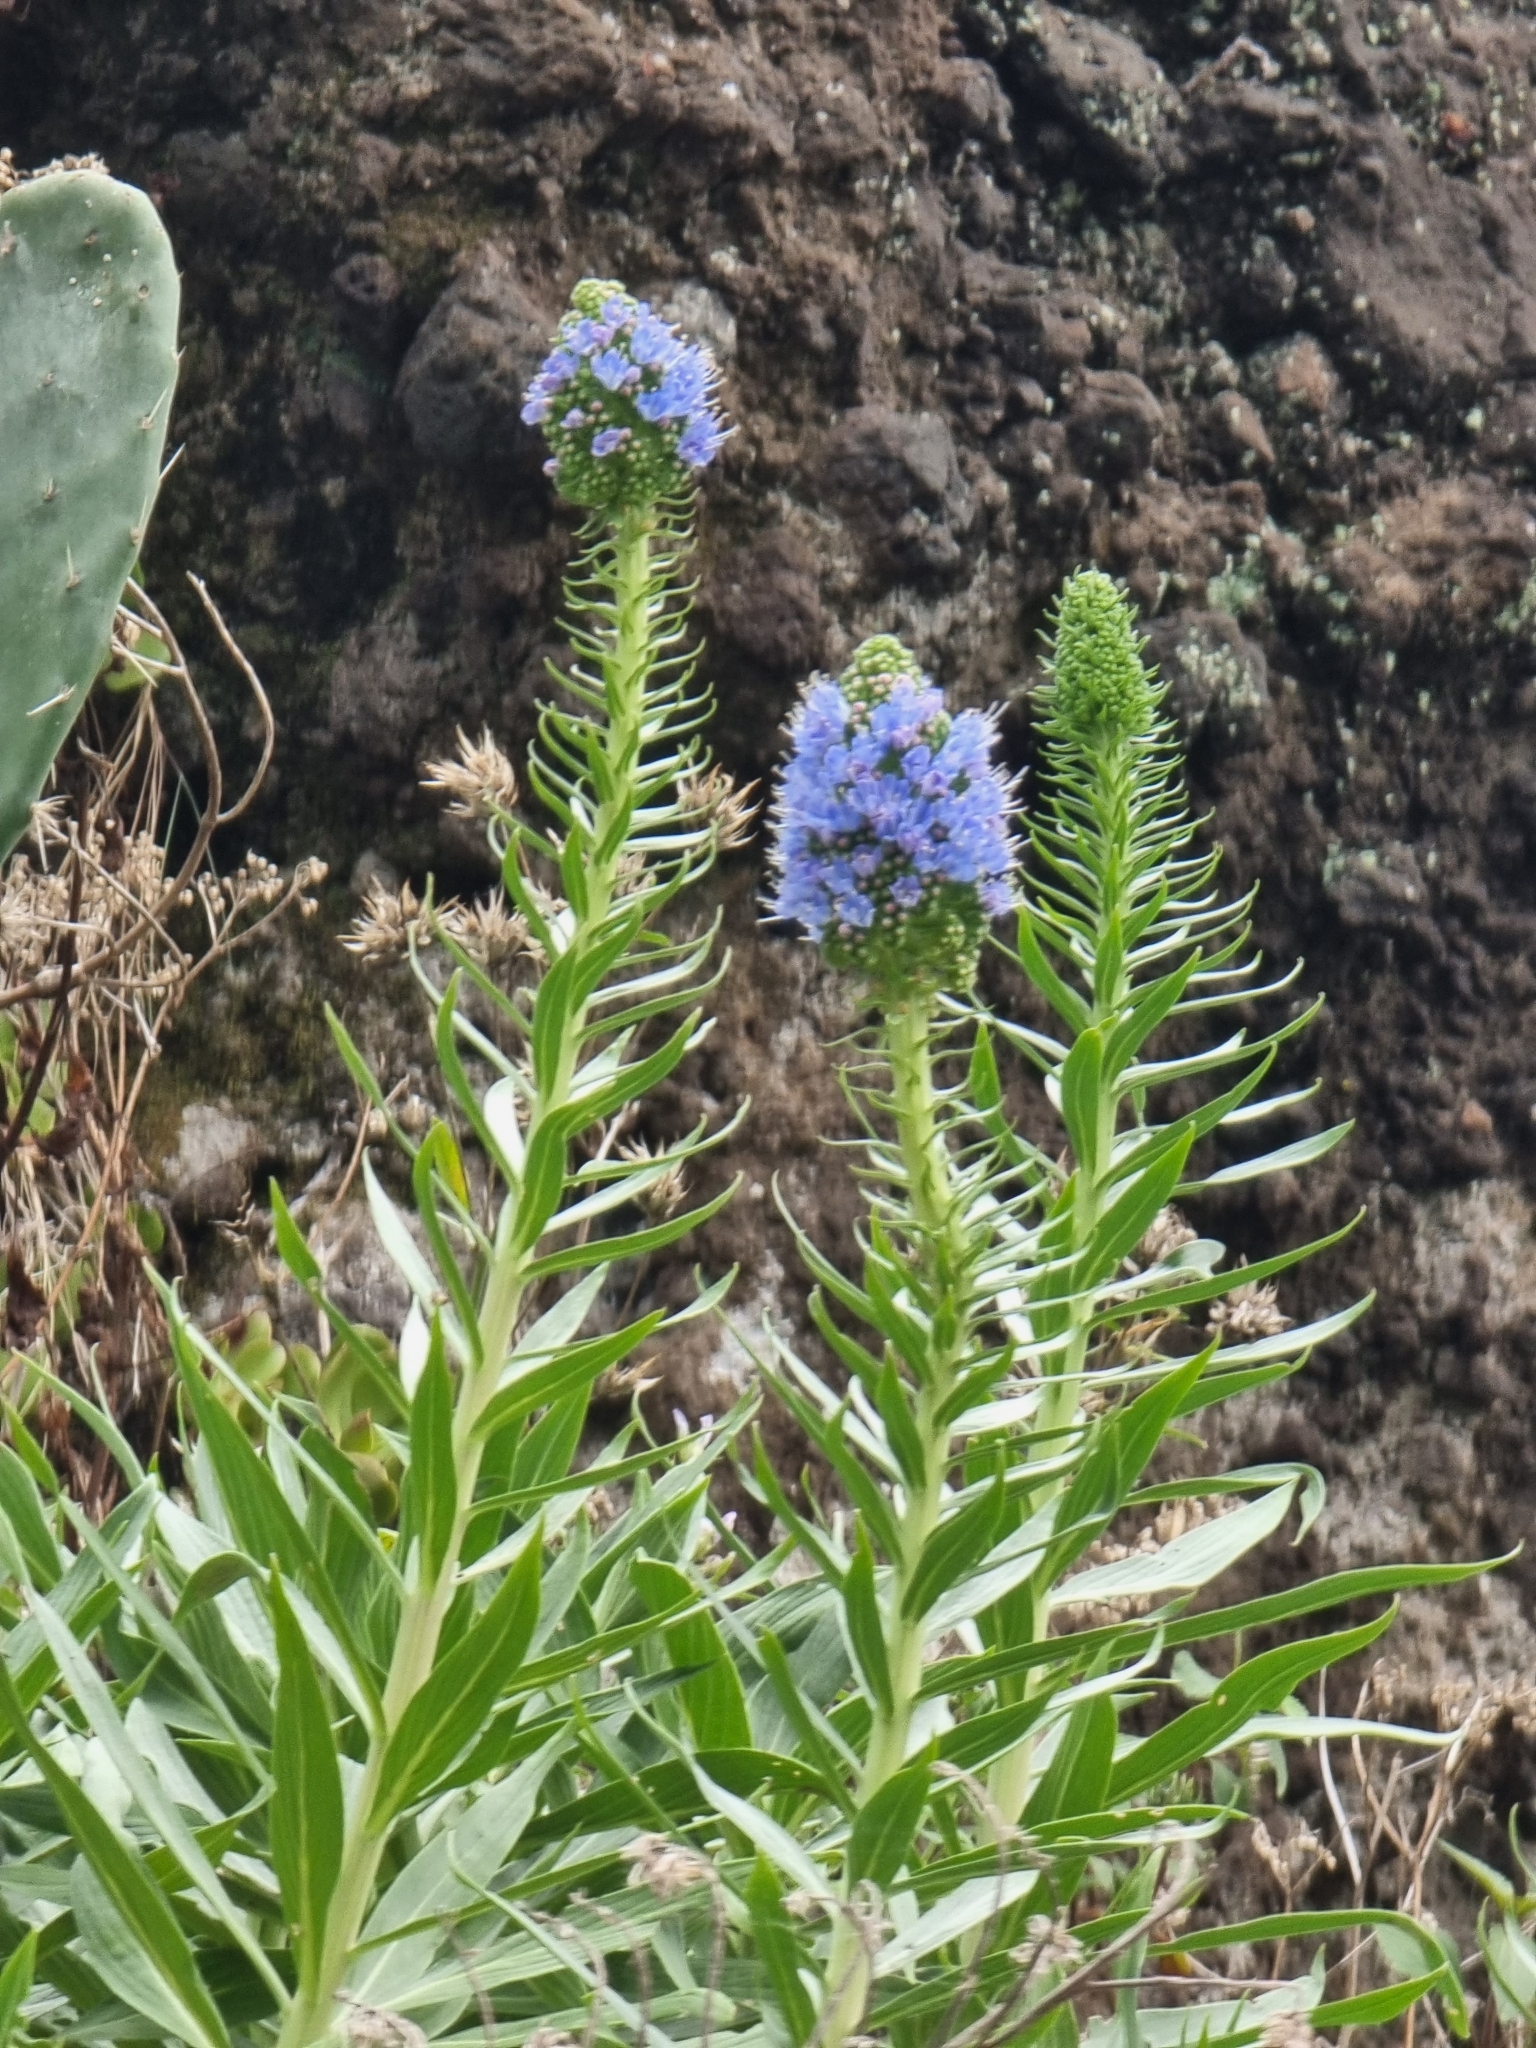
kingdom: Plantae
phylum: Tracheophyta
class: Magnoliopsida
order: Boraginales
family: Boraginaceae
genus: Echium
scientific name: Echium nervosum
